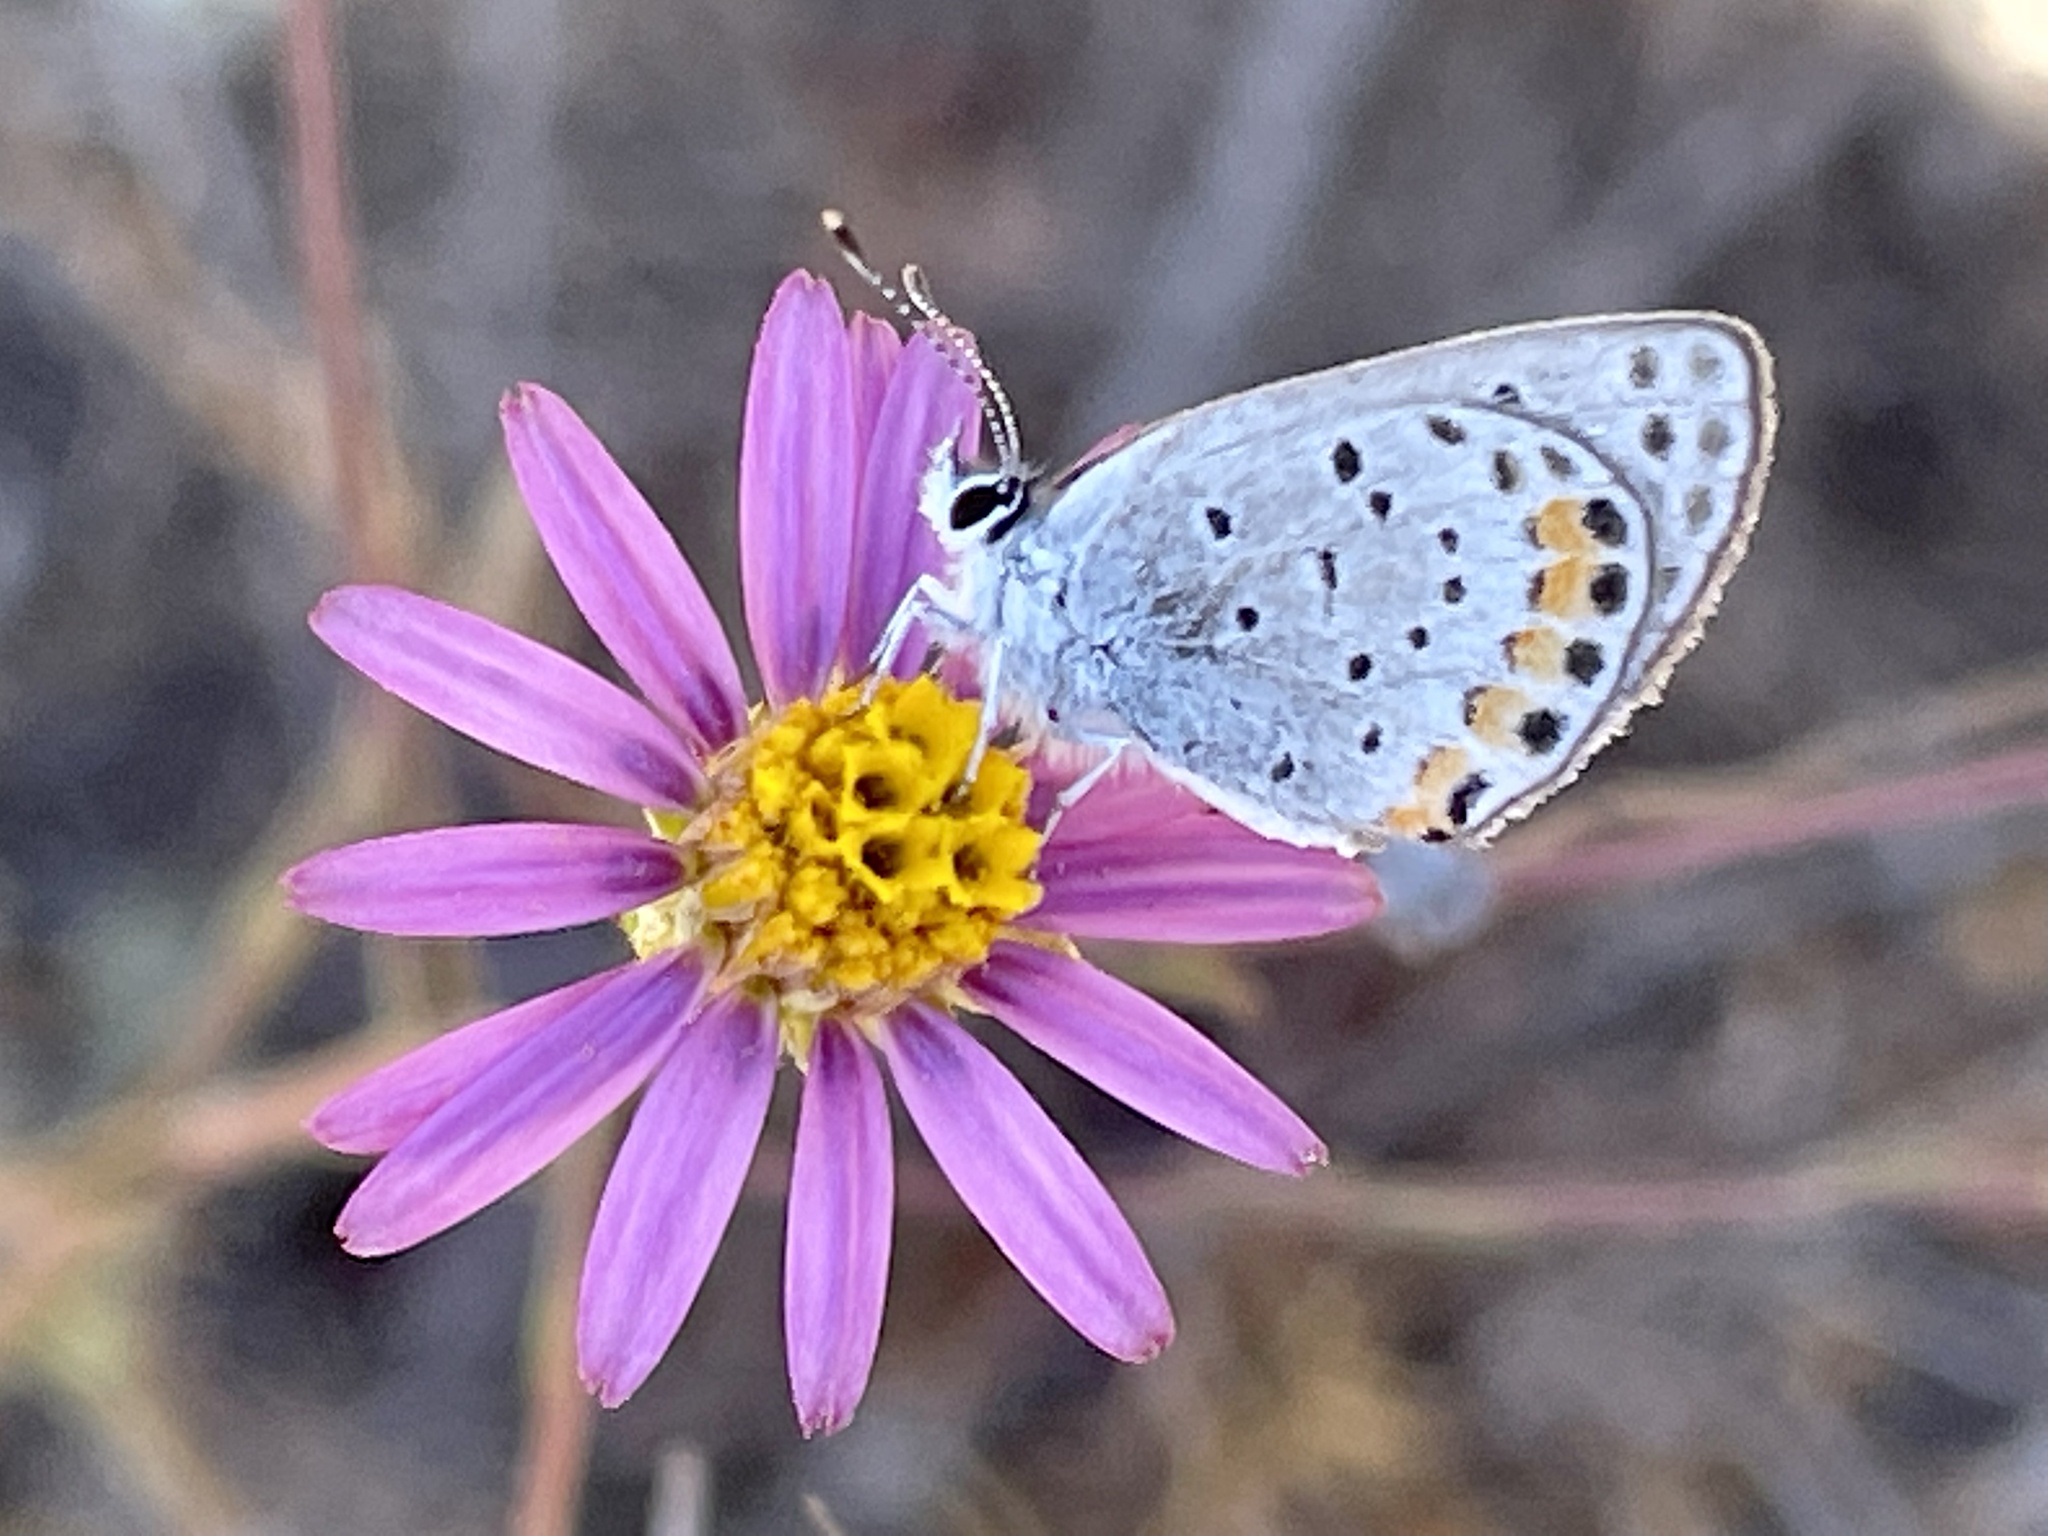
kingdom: Plantae
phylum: Tracheophyta
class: Magnoliopsida
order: Asterales
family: Asteraceae
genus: Corethrogyne
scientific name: Corethrogyne filaginifolia
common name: Sand-aster
